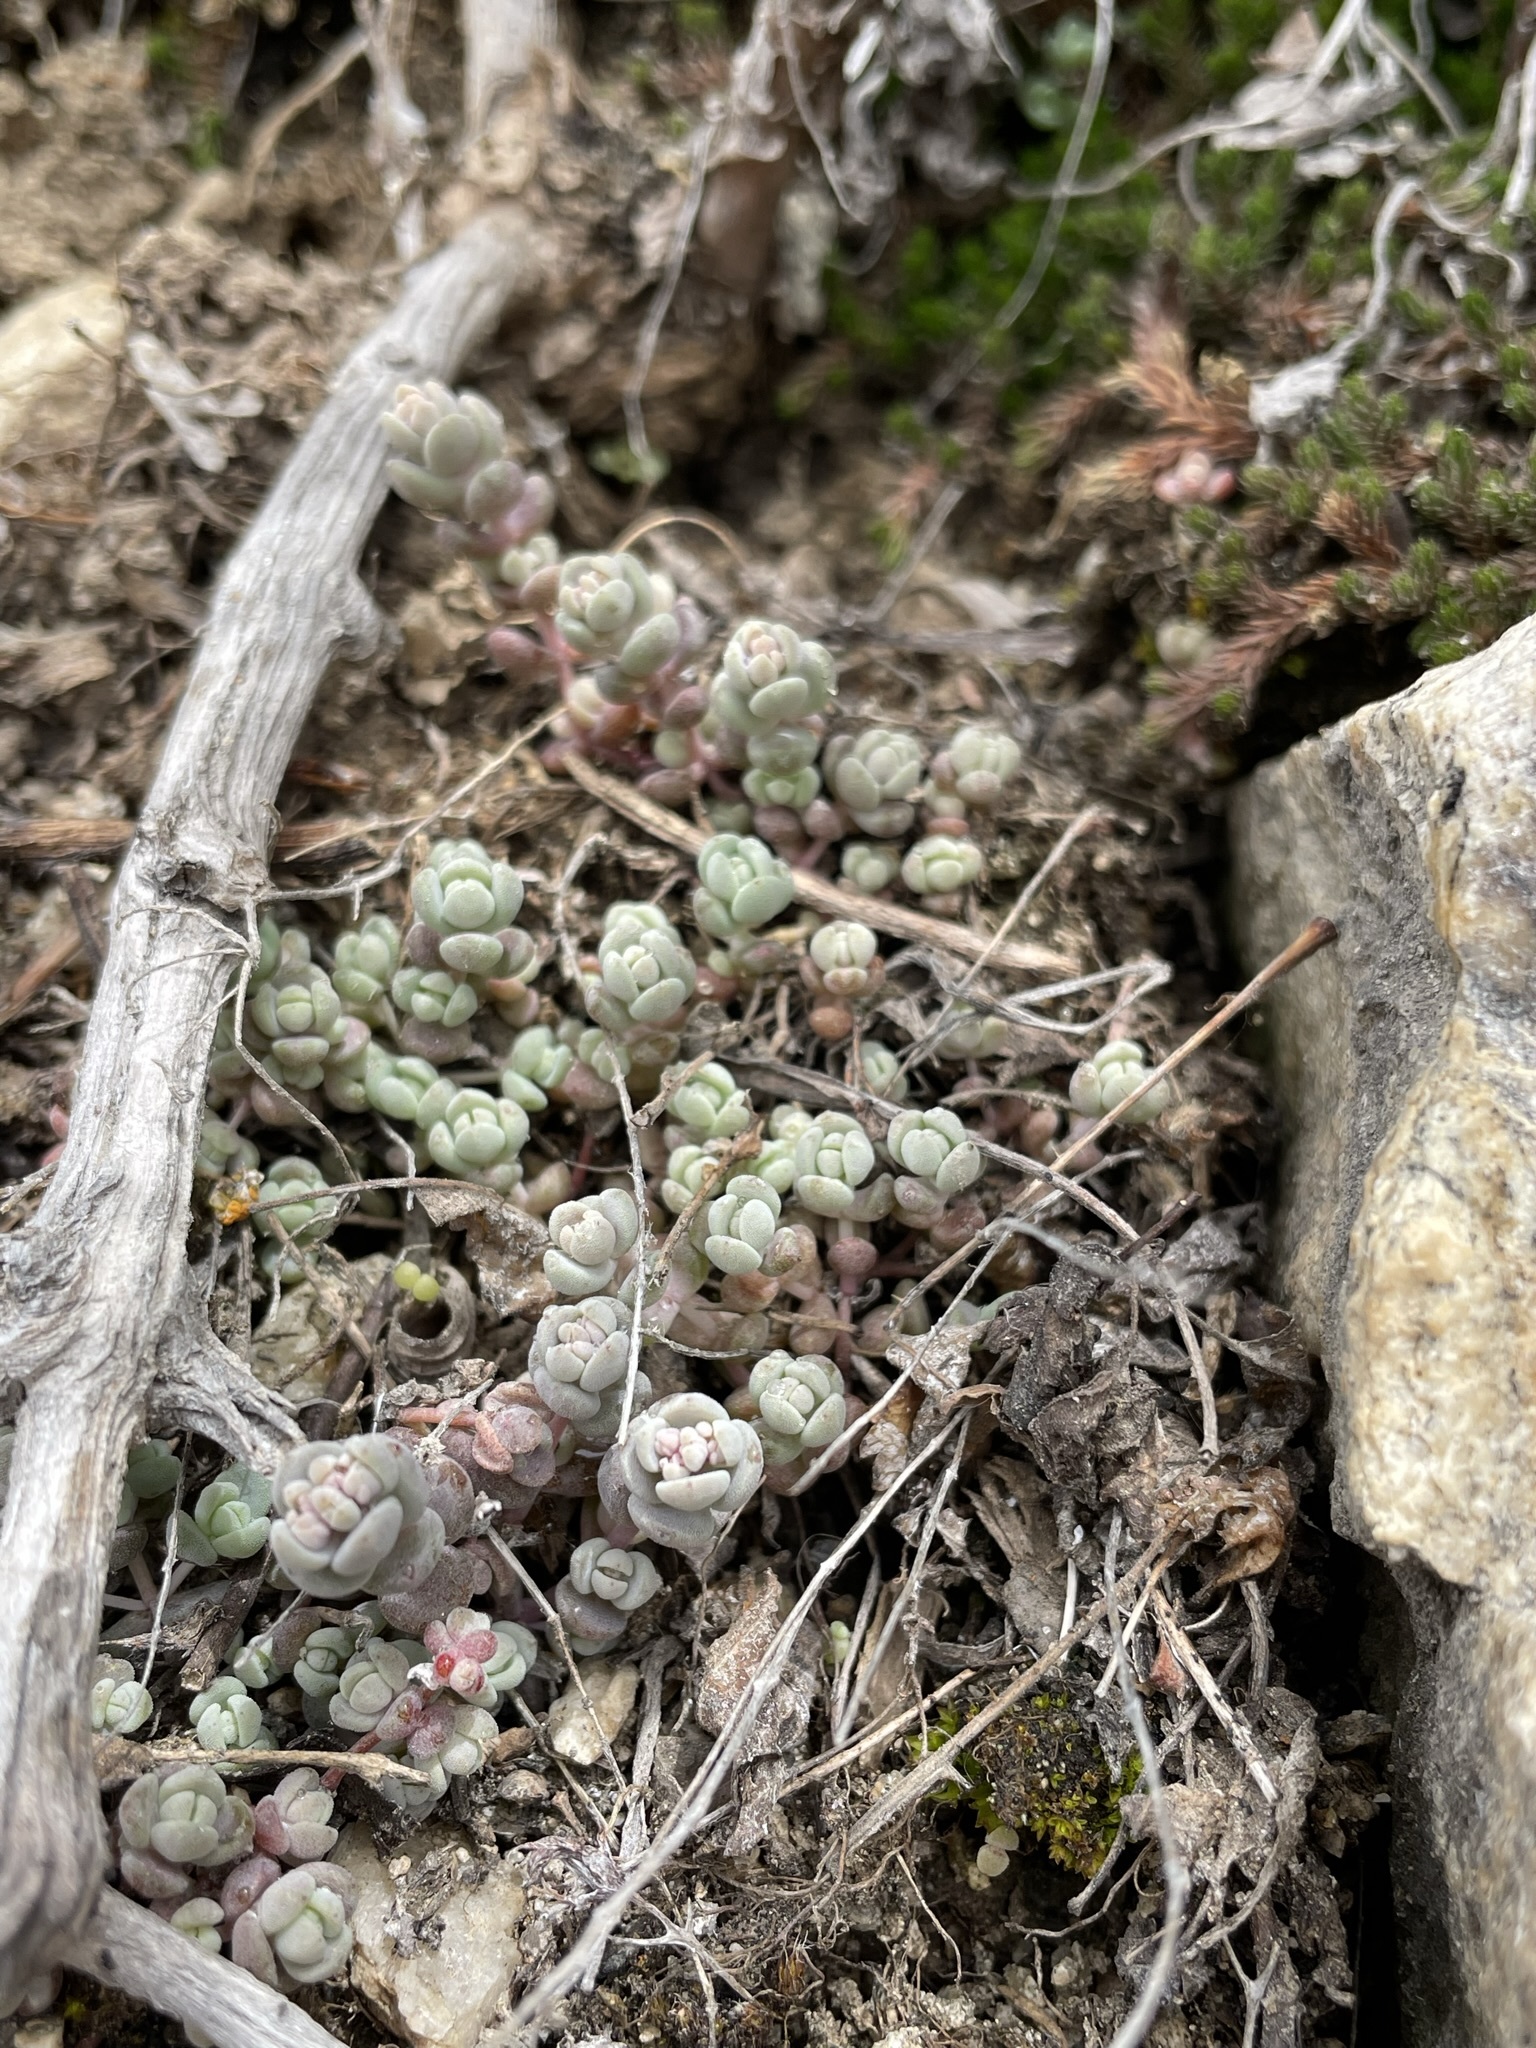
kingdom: Plantae
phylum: Tracheophyta
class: Magnoliopsida
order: Saxifragales
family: Crassulaceae
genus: Sedum
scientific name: Sedum debile
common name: Weak-stem stonecrop
